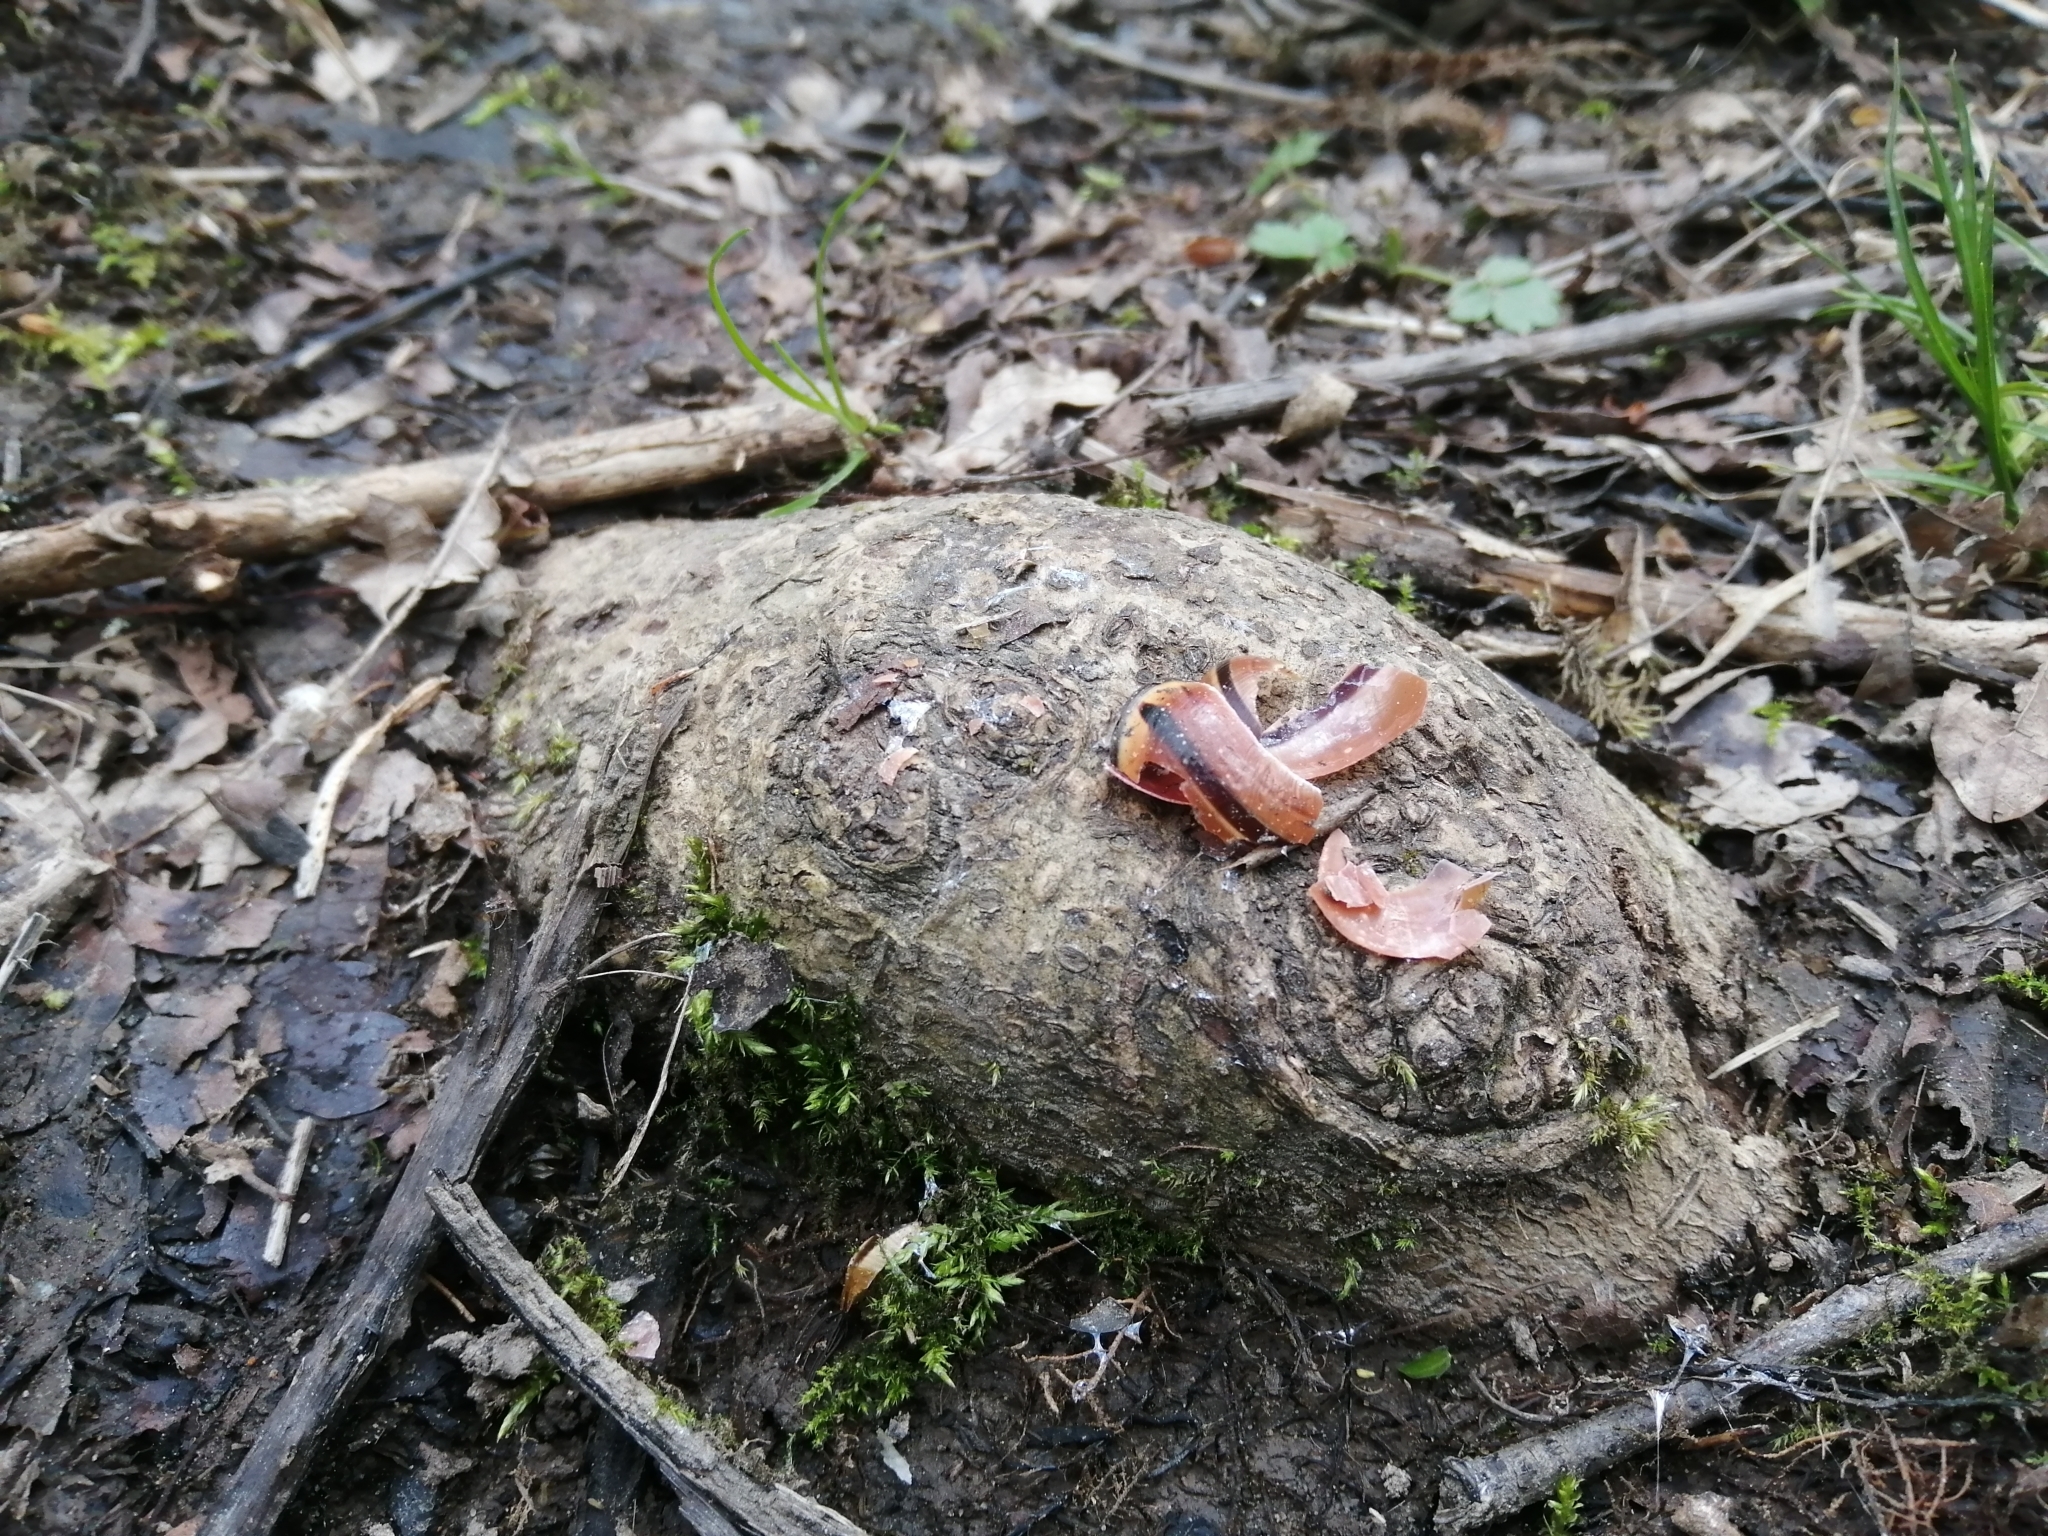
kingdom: Animalia
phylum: Mollusca
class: Gastropoda
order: Stylommatophora
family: Helicidae
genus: Cepaea
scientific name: Cepaea nemoralis
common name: Grovesnail
